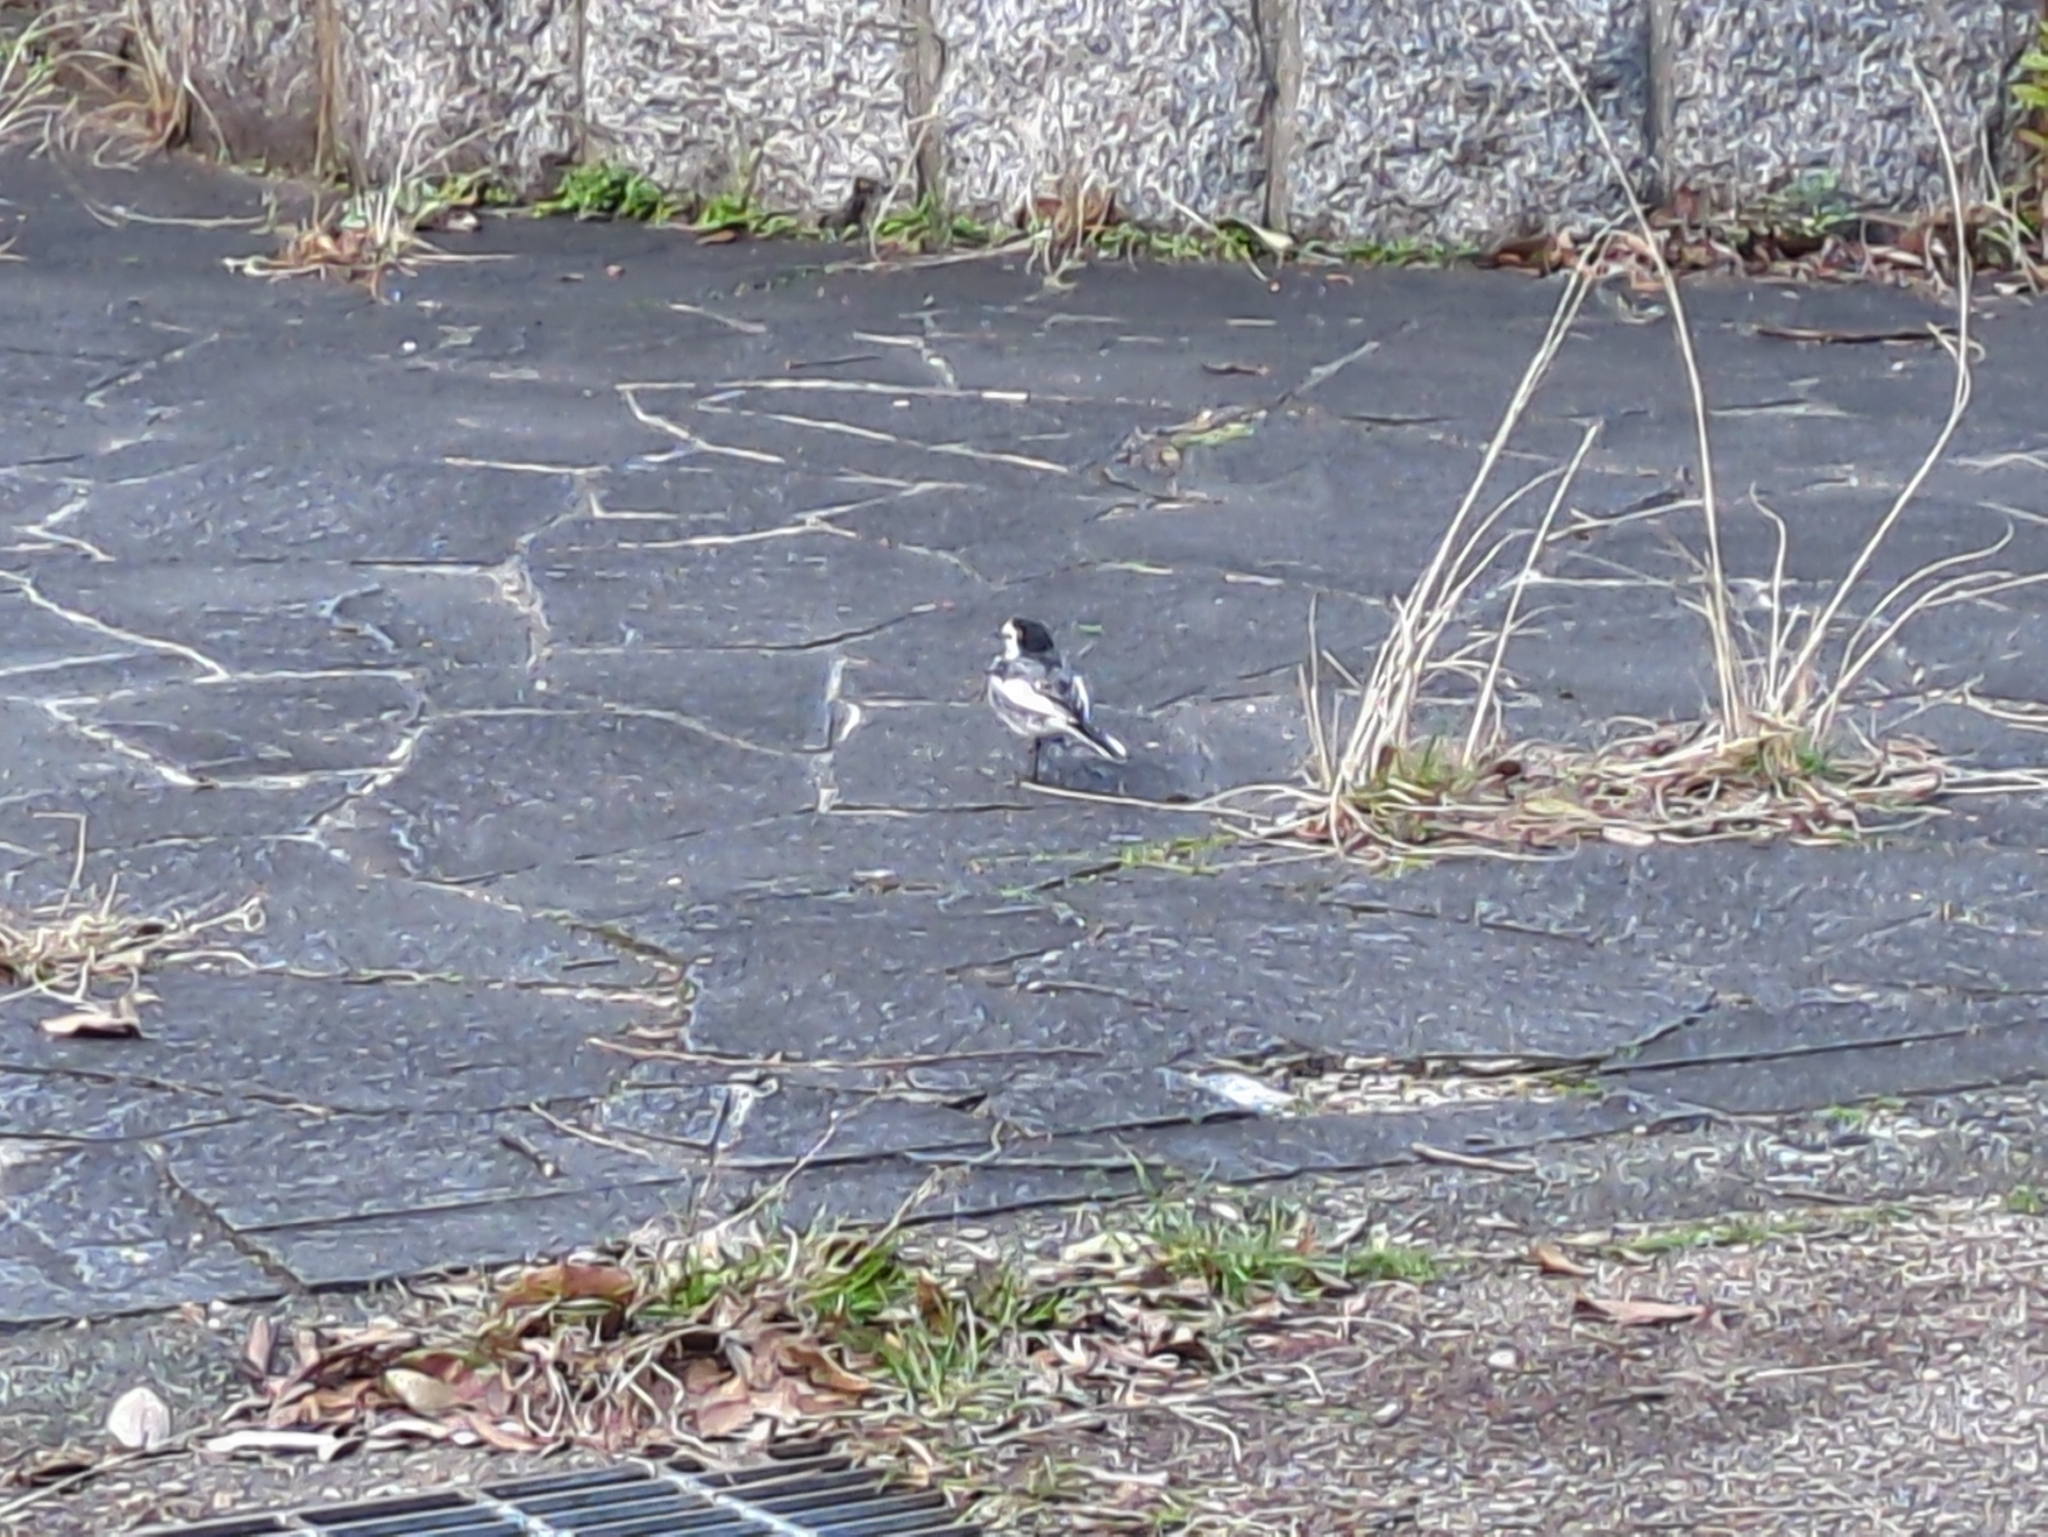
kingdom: Animalia
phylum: Chordata
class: Aves
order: Passeriformes
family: Motacillidae
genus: Motacilla
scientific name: Motacilla alba
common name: White wagtail
